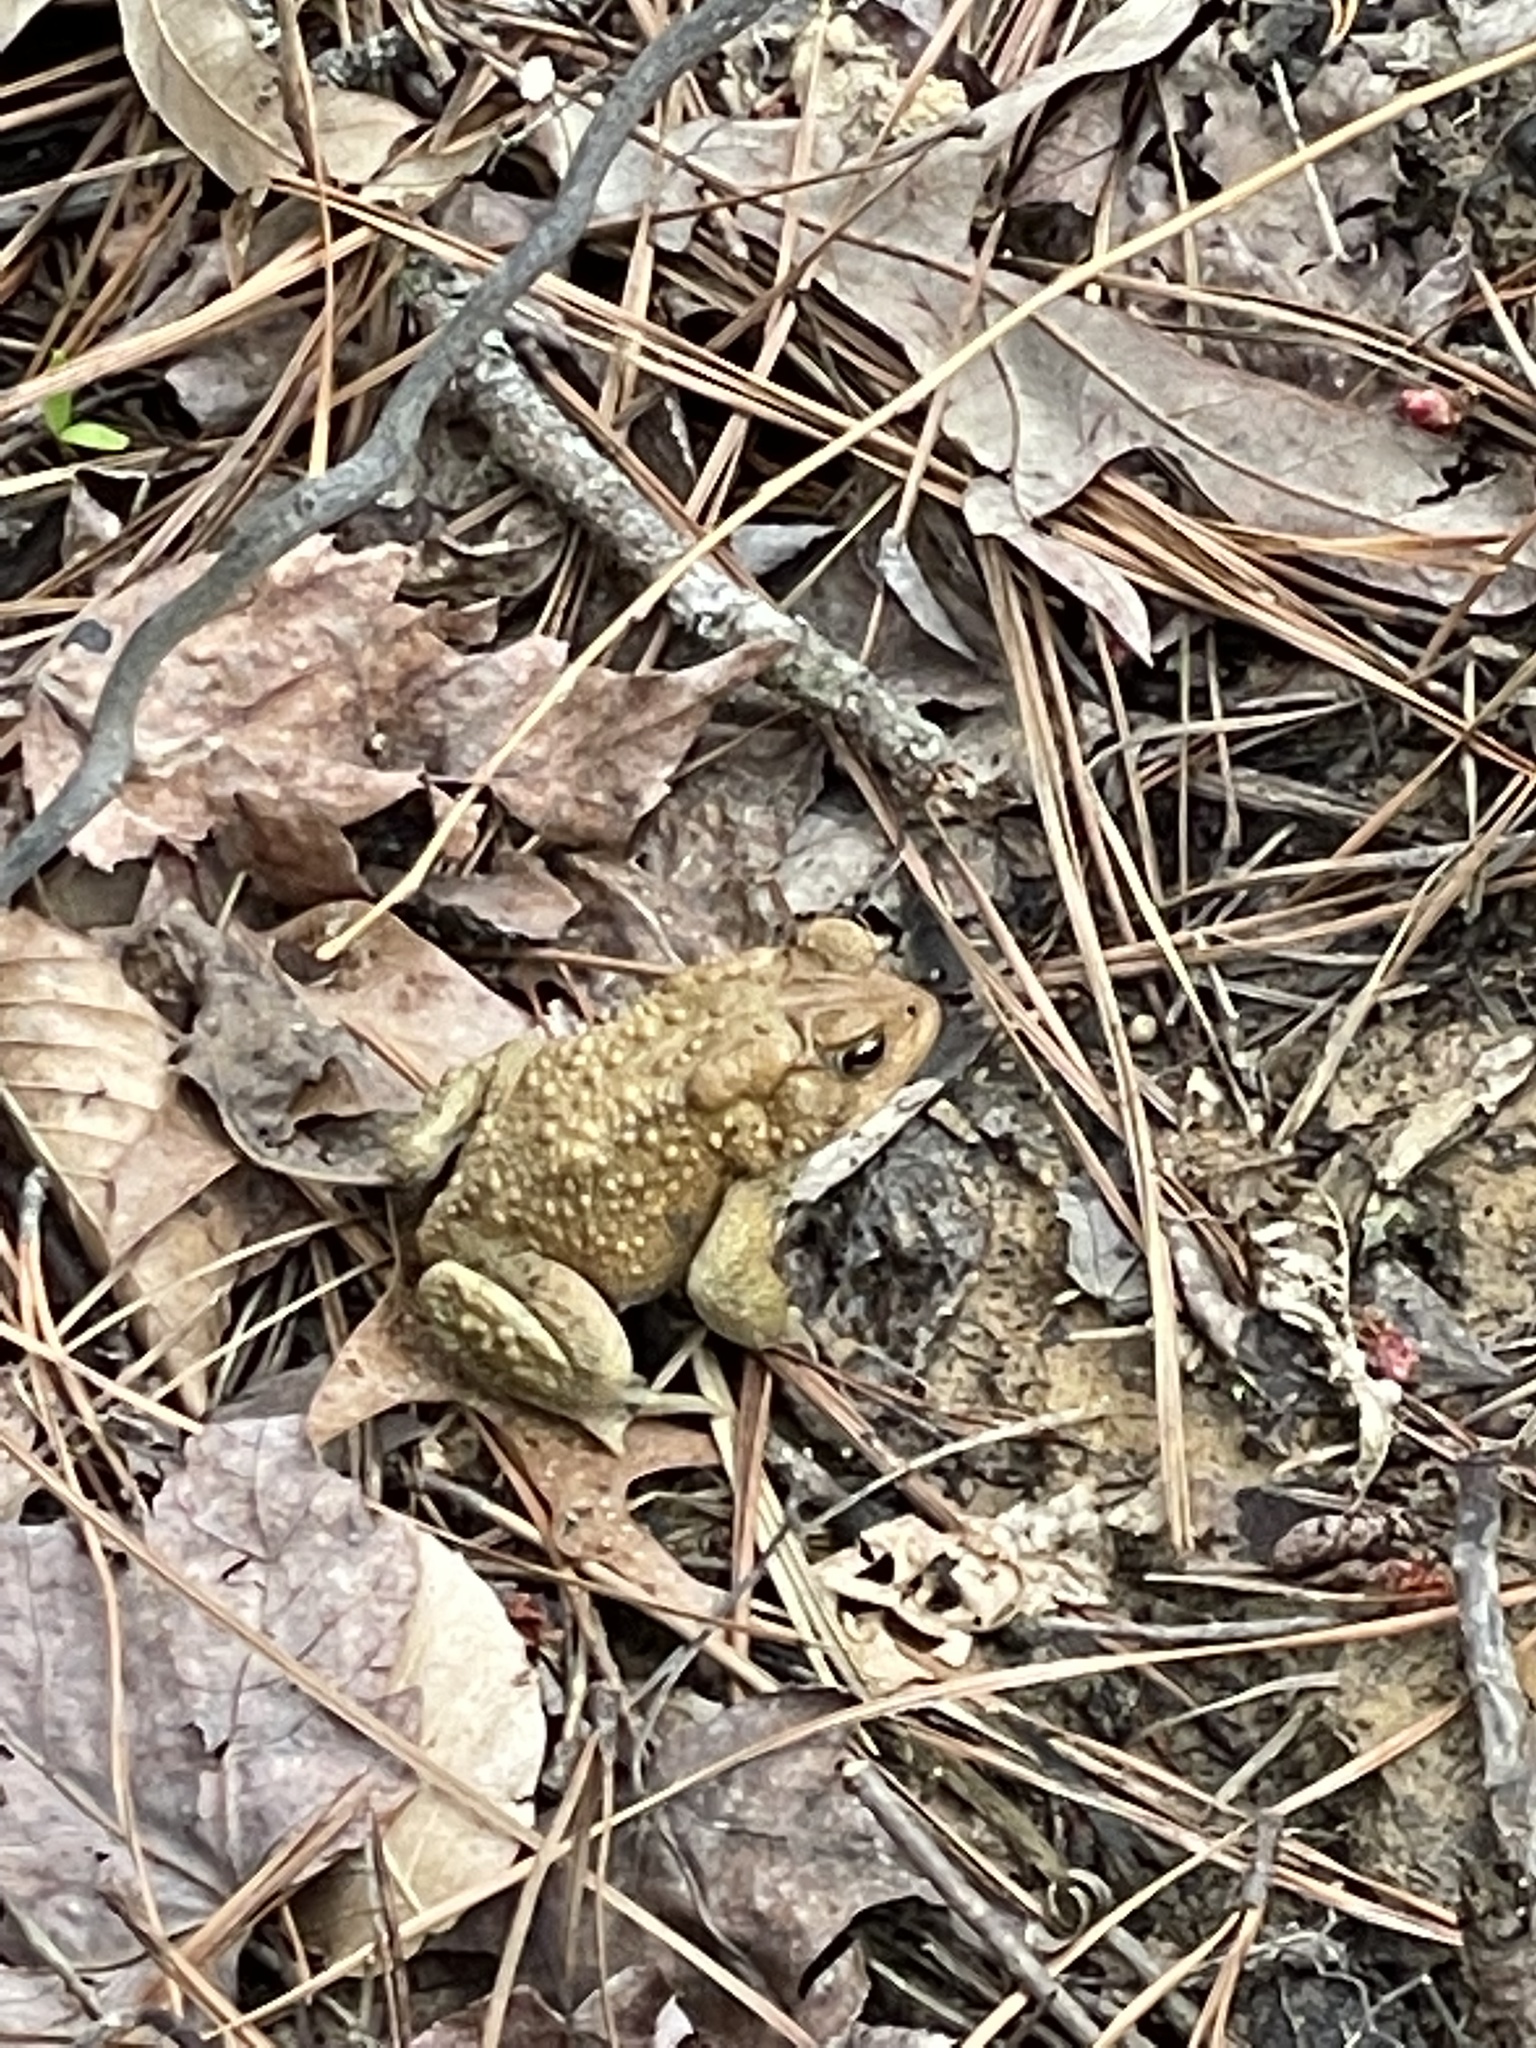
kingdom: Animalia
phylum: Chordata
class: Amphibia
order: Anura
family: Bufonidae
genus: Anaxyrus
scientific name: Anaxyrus americanus
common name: American toad
